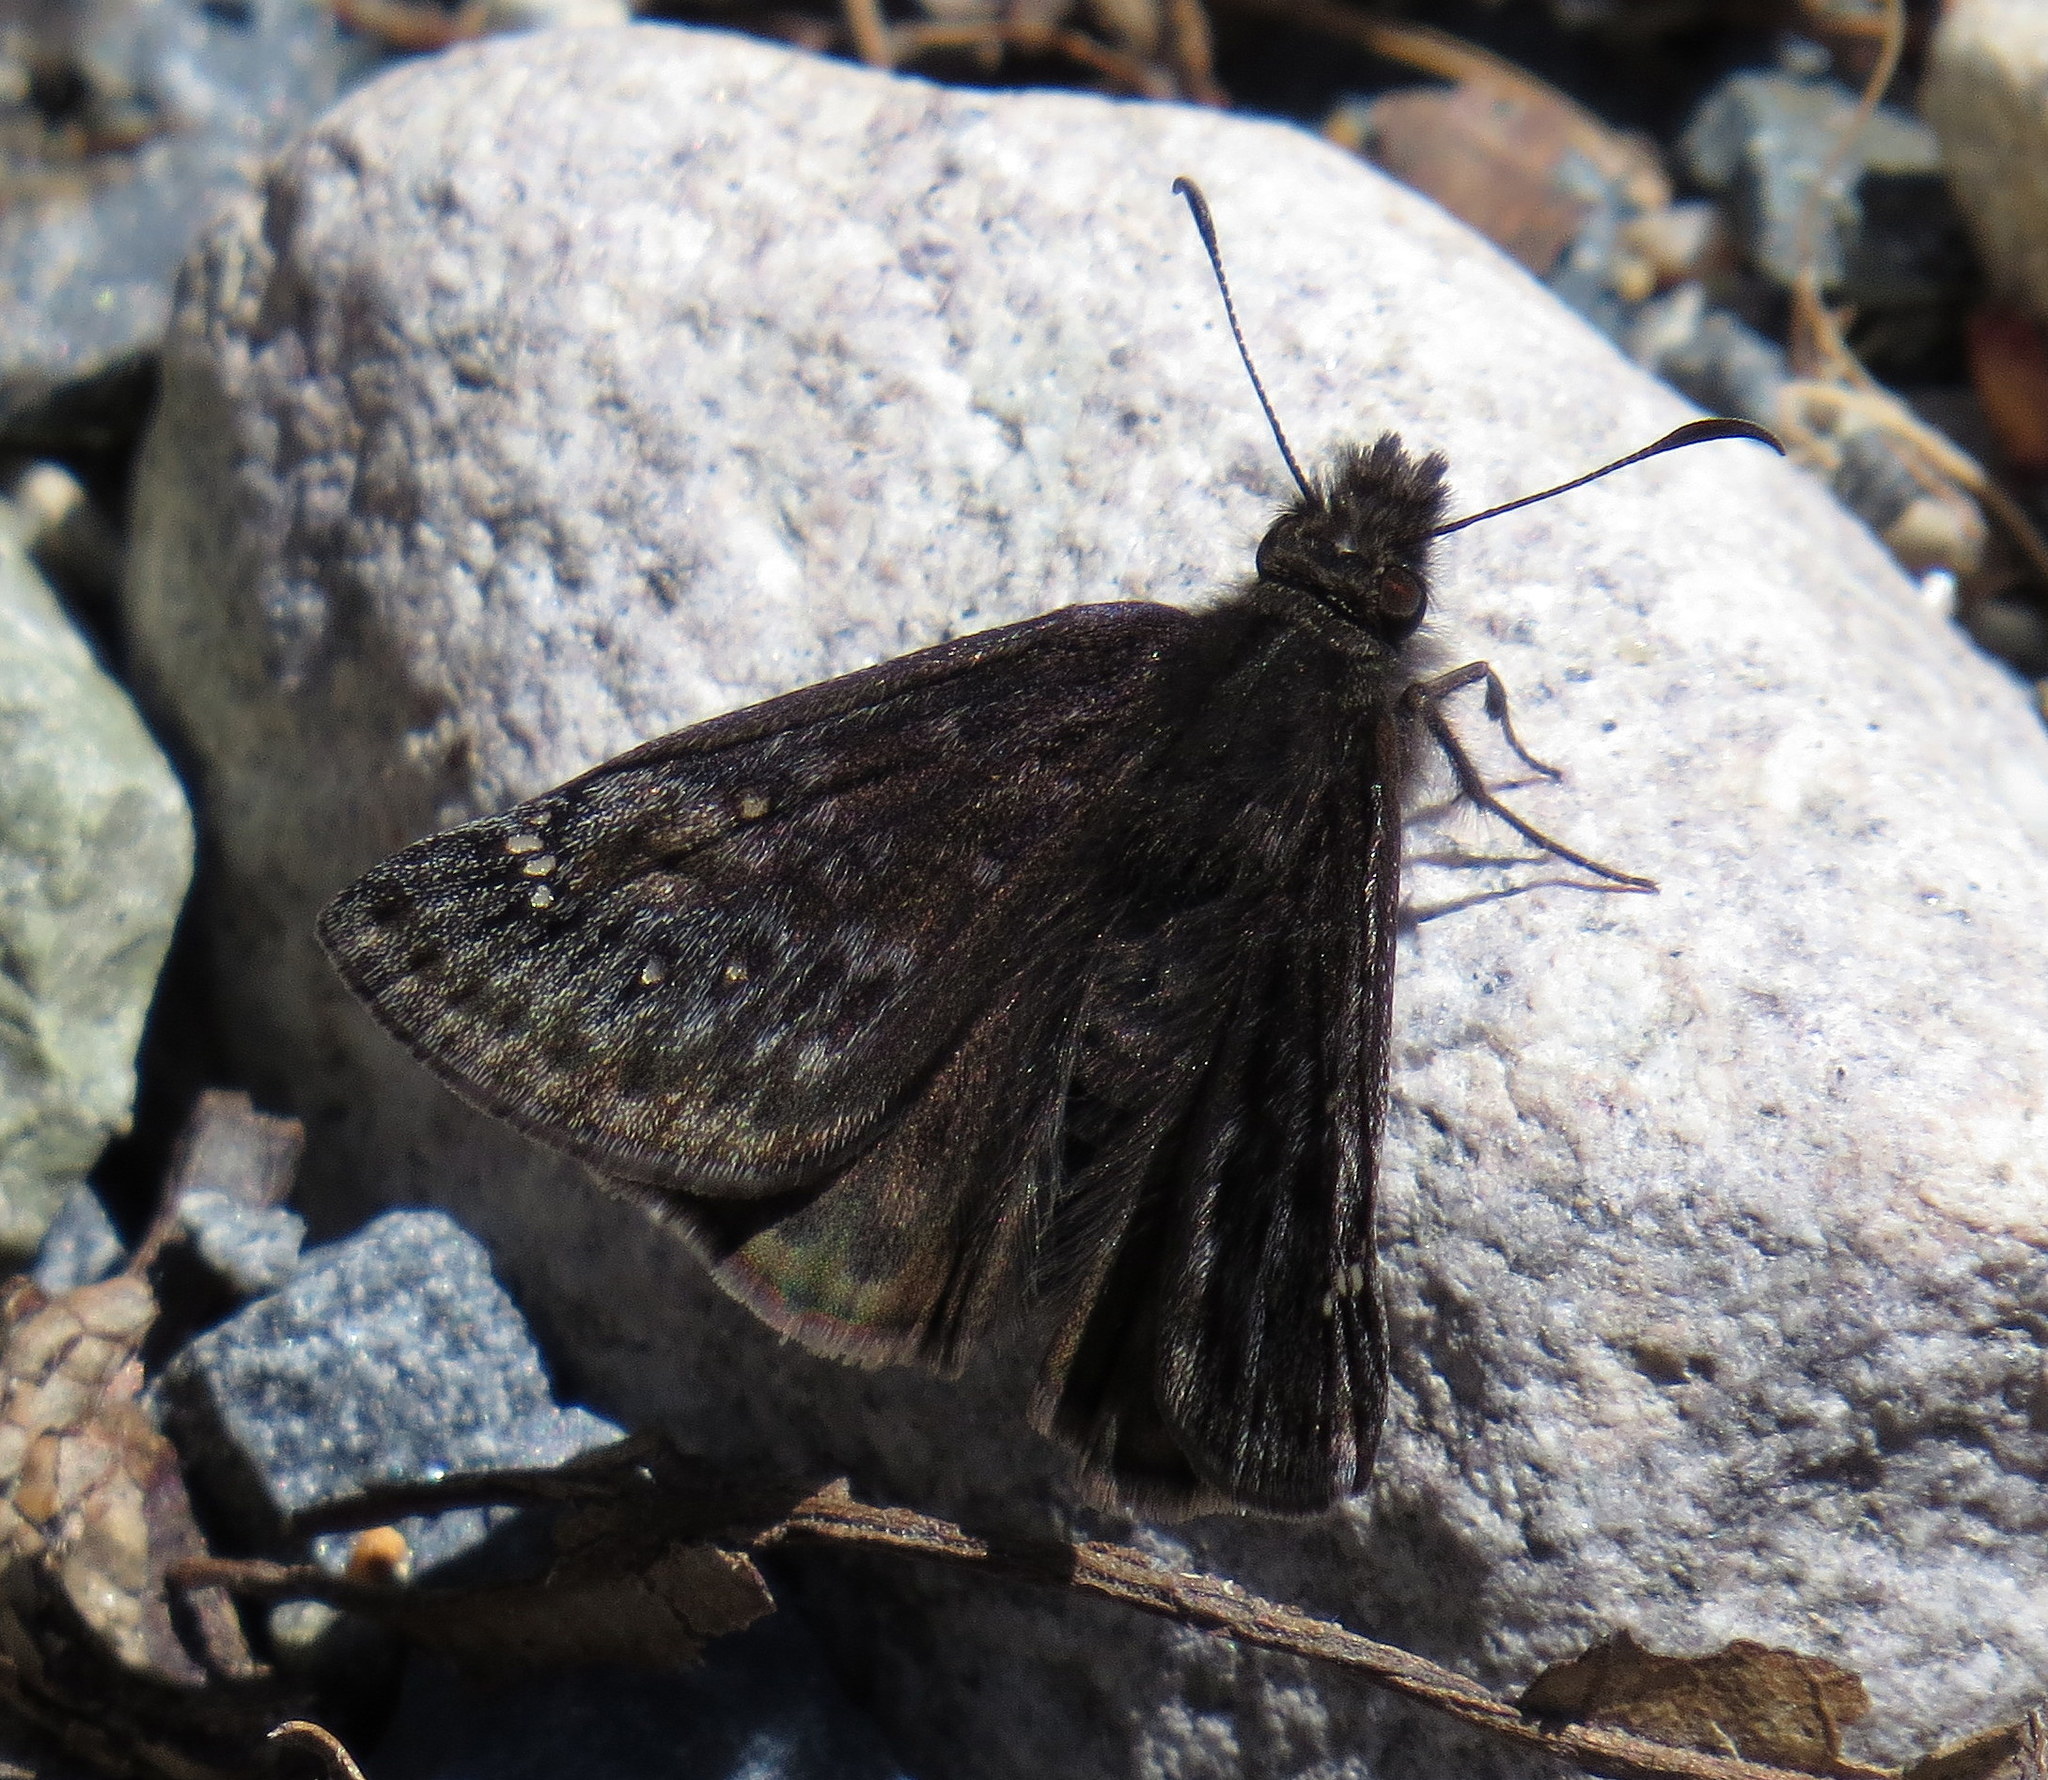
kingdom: Animalia
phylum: Arthropoda
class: Insecta
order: Lepidoptera
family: Hesperiidae
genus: Erynnis
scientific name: Erynnis juvenalis
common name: Juvenal's duskywing
